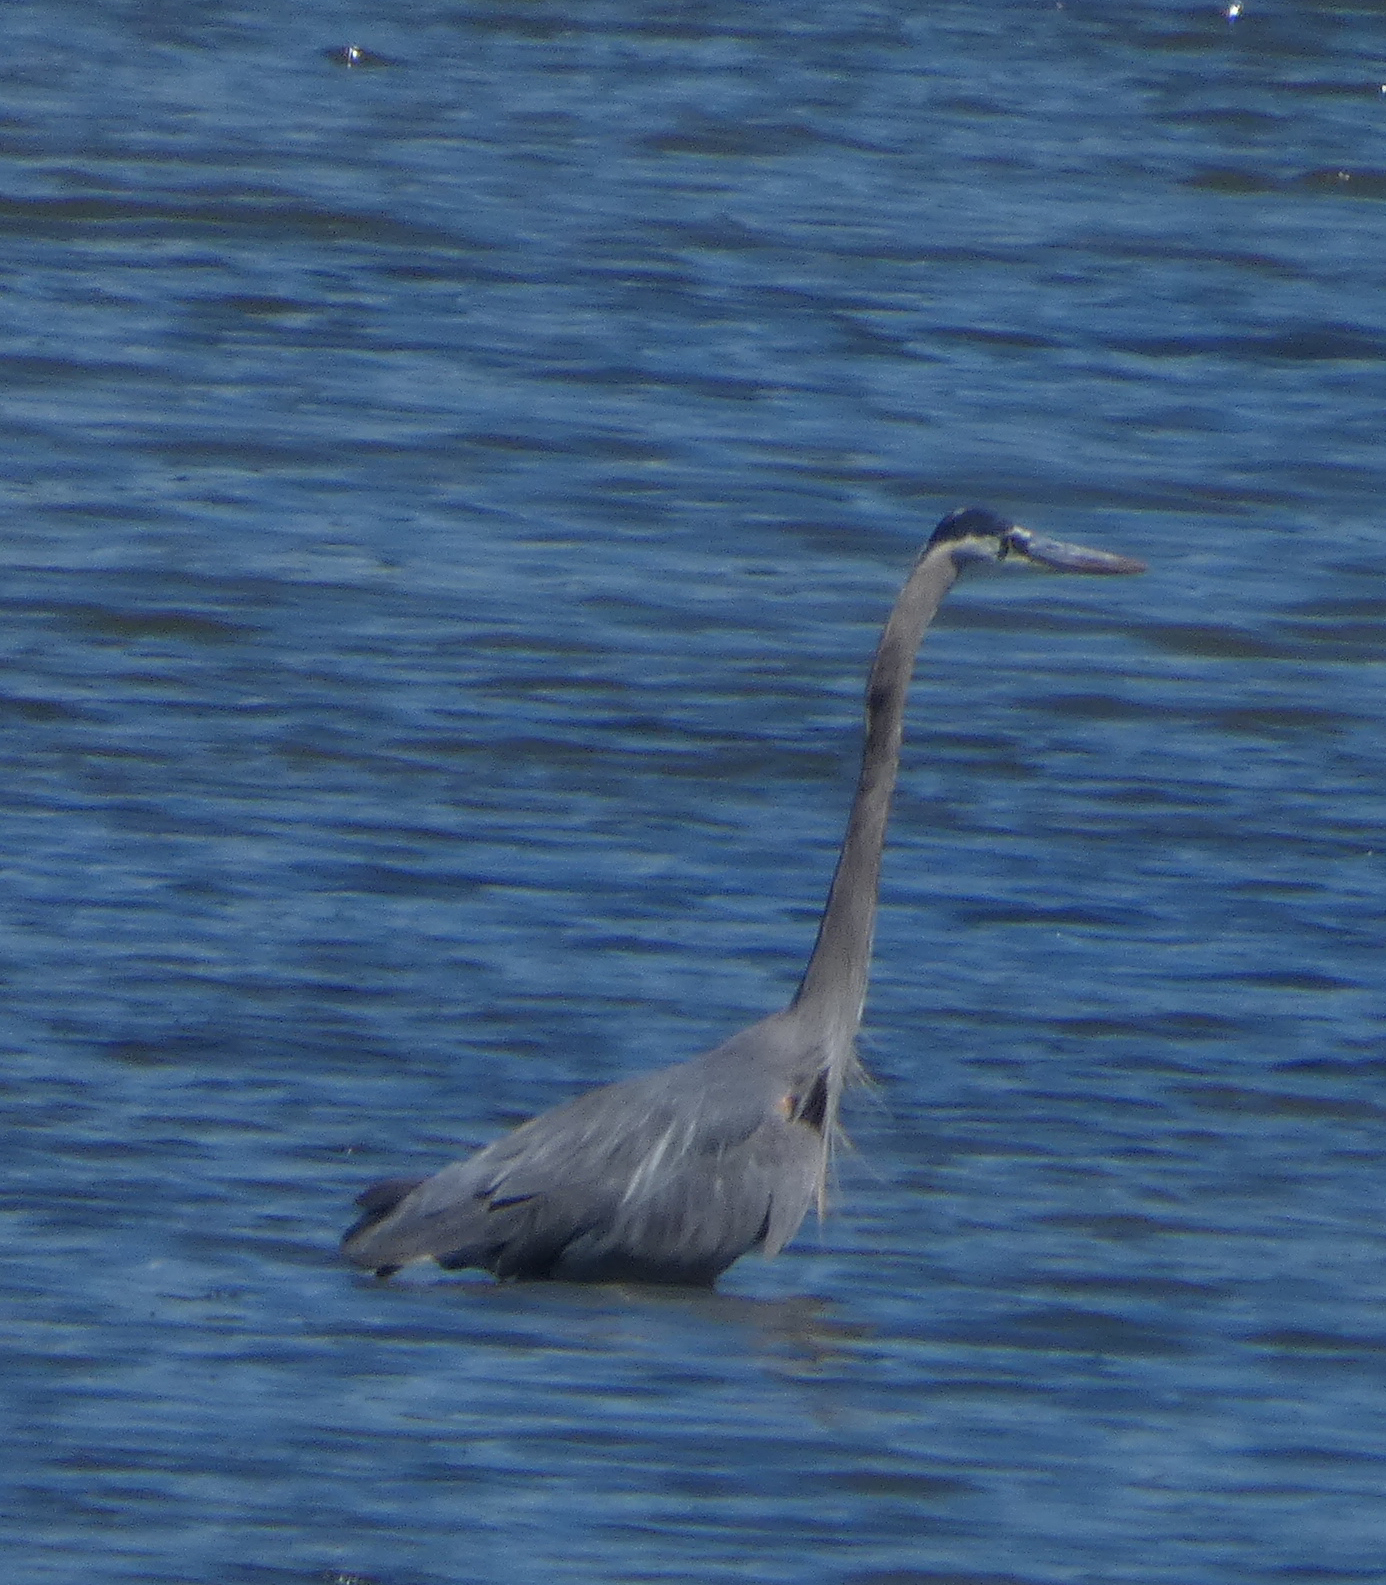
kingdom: Animalia
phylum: Chordata
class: Aves
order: Pelecaniformes
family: Ardeidae
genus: Ardea
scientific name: Ardea herodias
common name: Great blue heron
